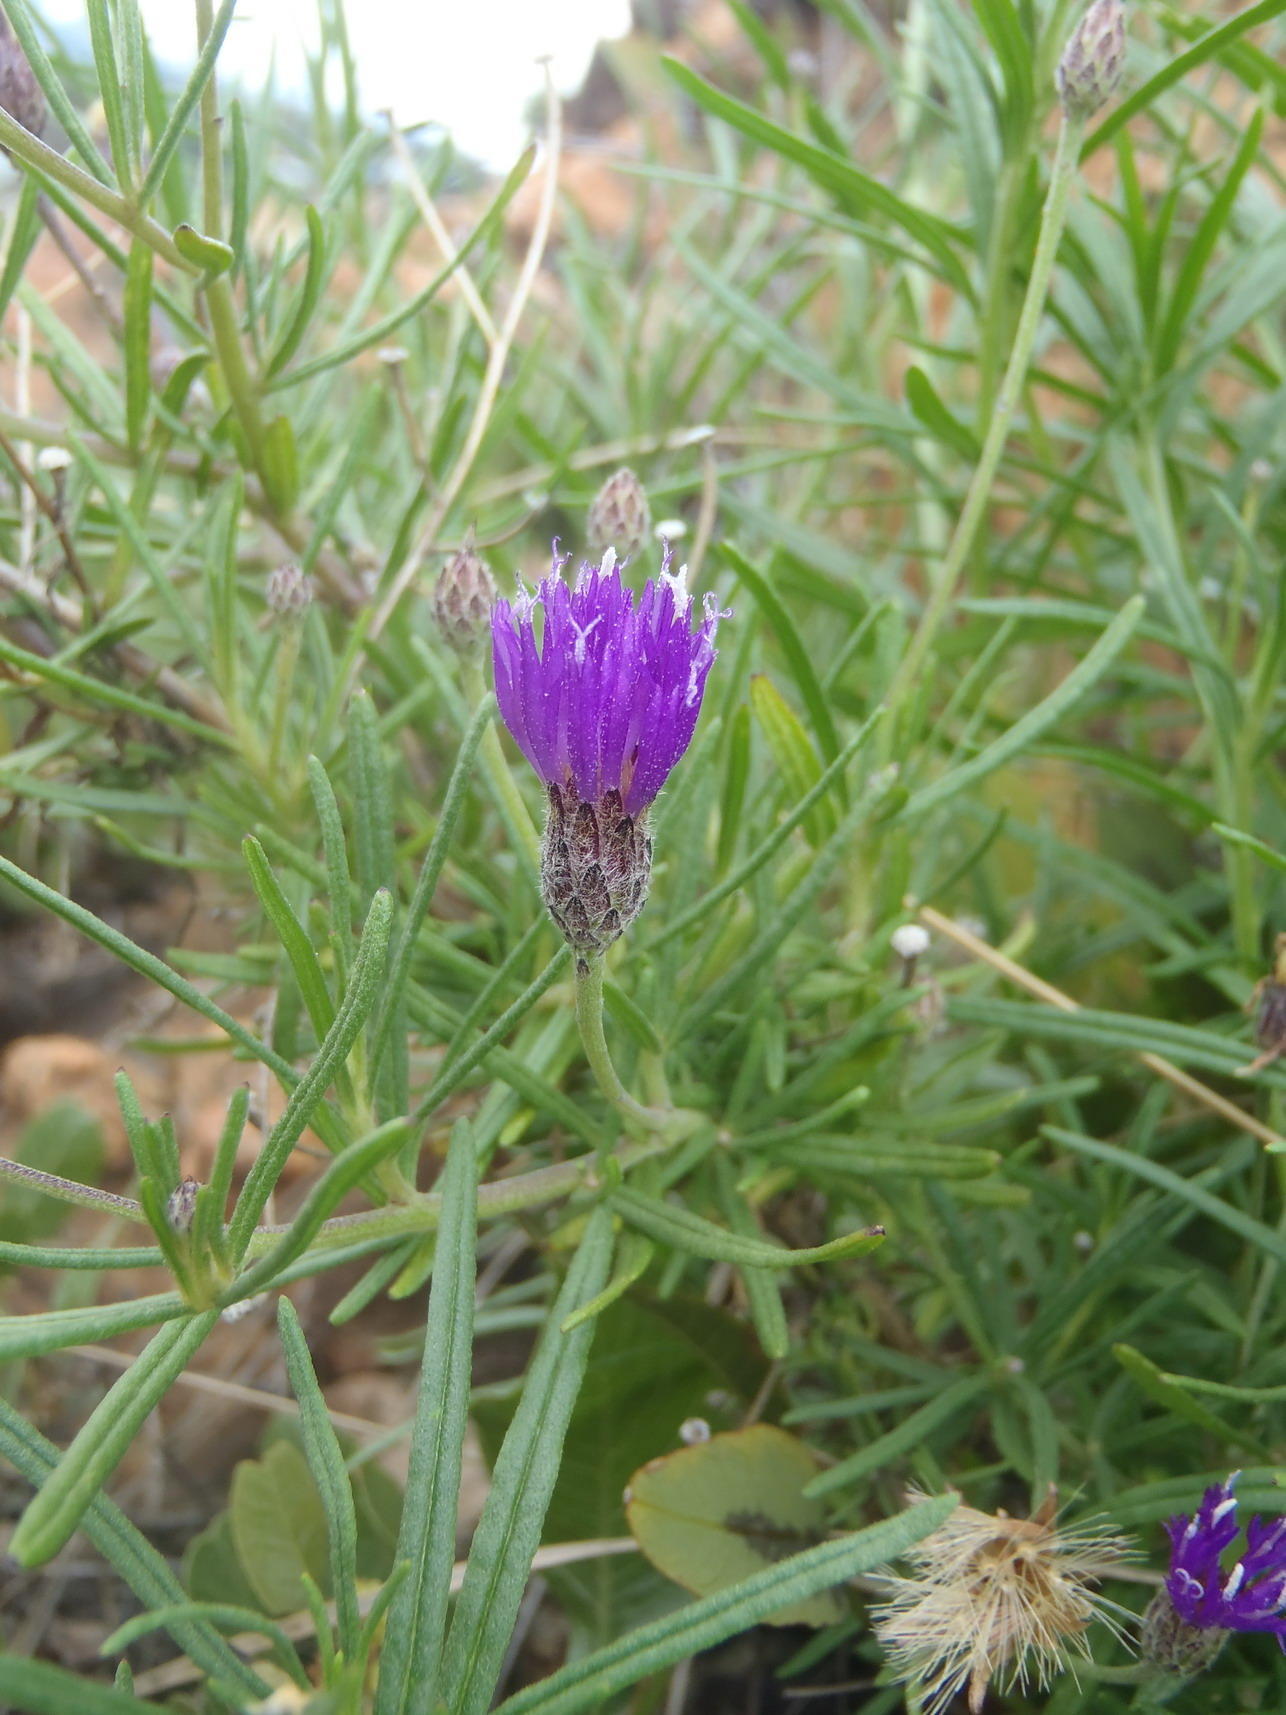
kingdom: Plantae
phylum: Tracheophyta
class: Magnoliopsida
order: Asterales
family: Asteraceae
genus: Crystallopollen
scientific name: Crystallopollen angustifolium
